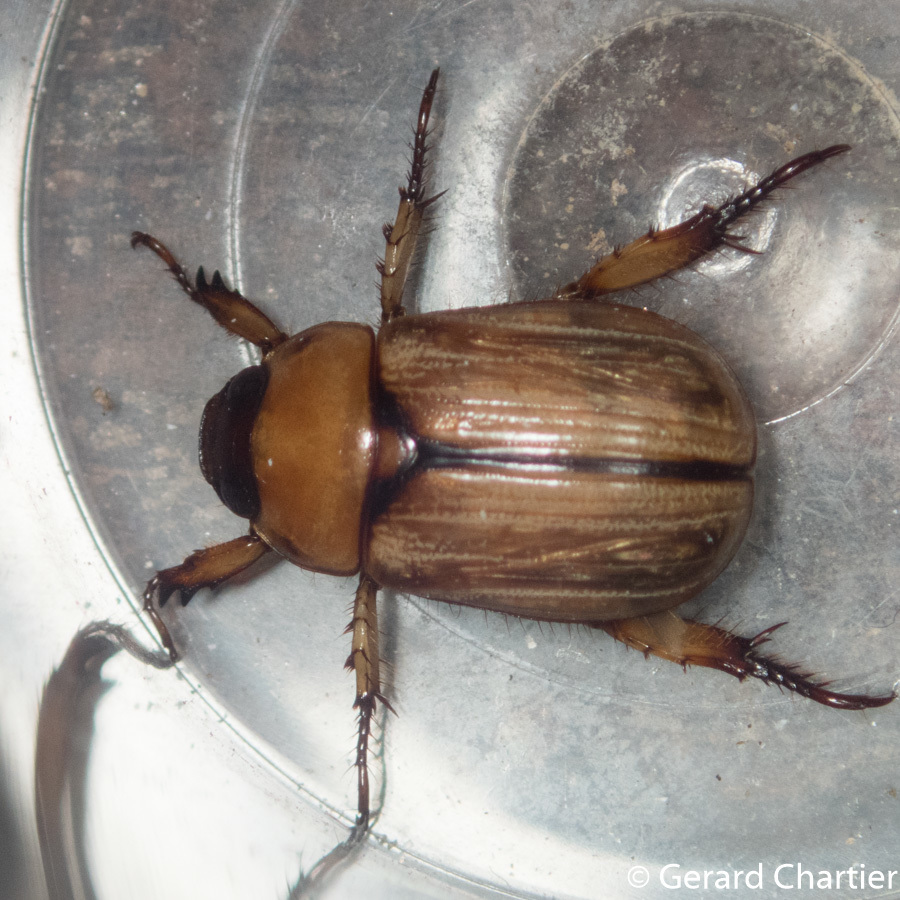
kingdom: Animalia
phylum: Arthropoda
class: Insecta
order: Coleoptera
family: Scarabaeidae
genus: Anomala
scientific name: Anomala pallida
